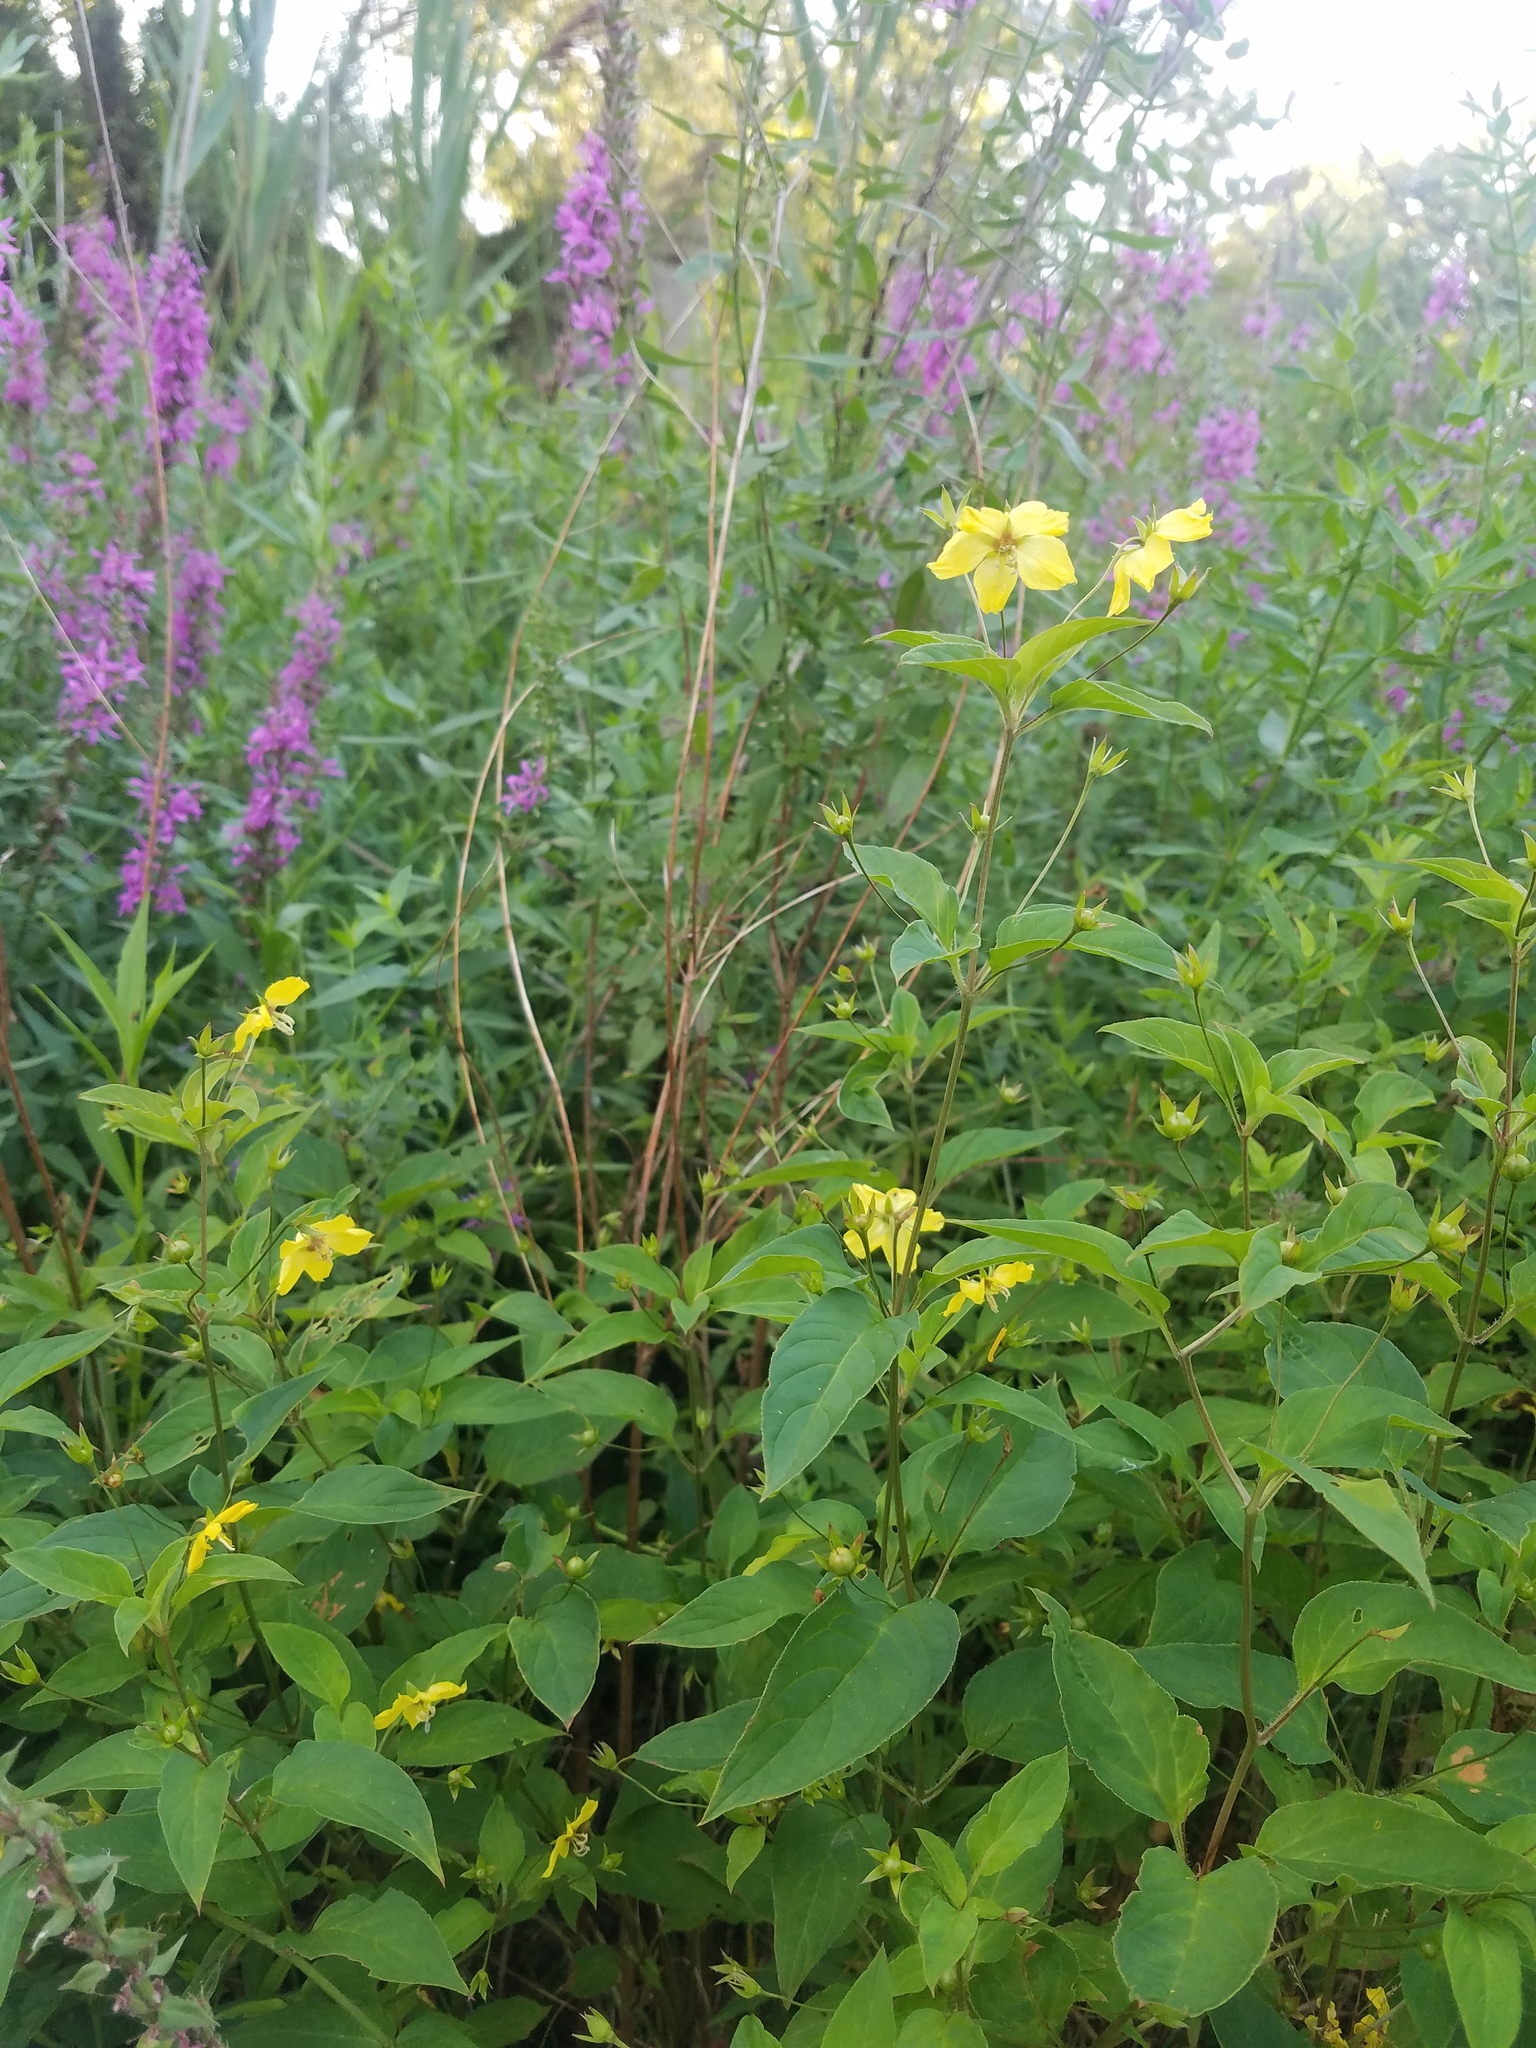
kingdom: Plantae
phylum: Tracheophyta
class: Magnoliopsida
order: Ericales
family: Primulaceae
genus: Lysimachia
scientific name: Lysimachia ciliata
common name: Fringed loosestrife
